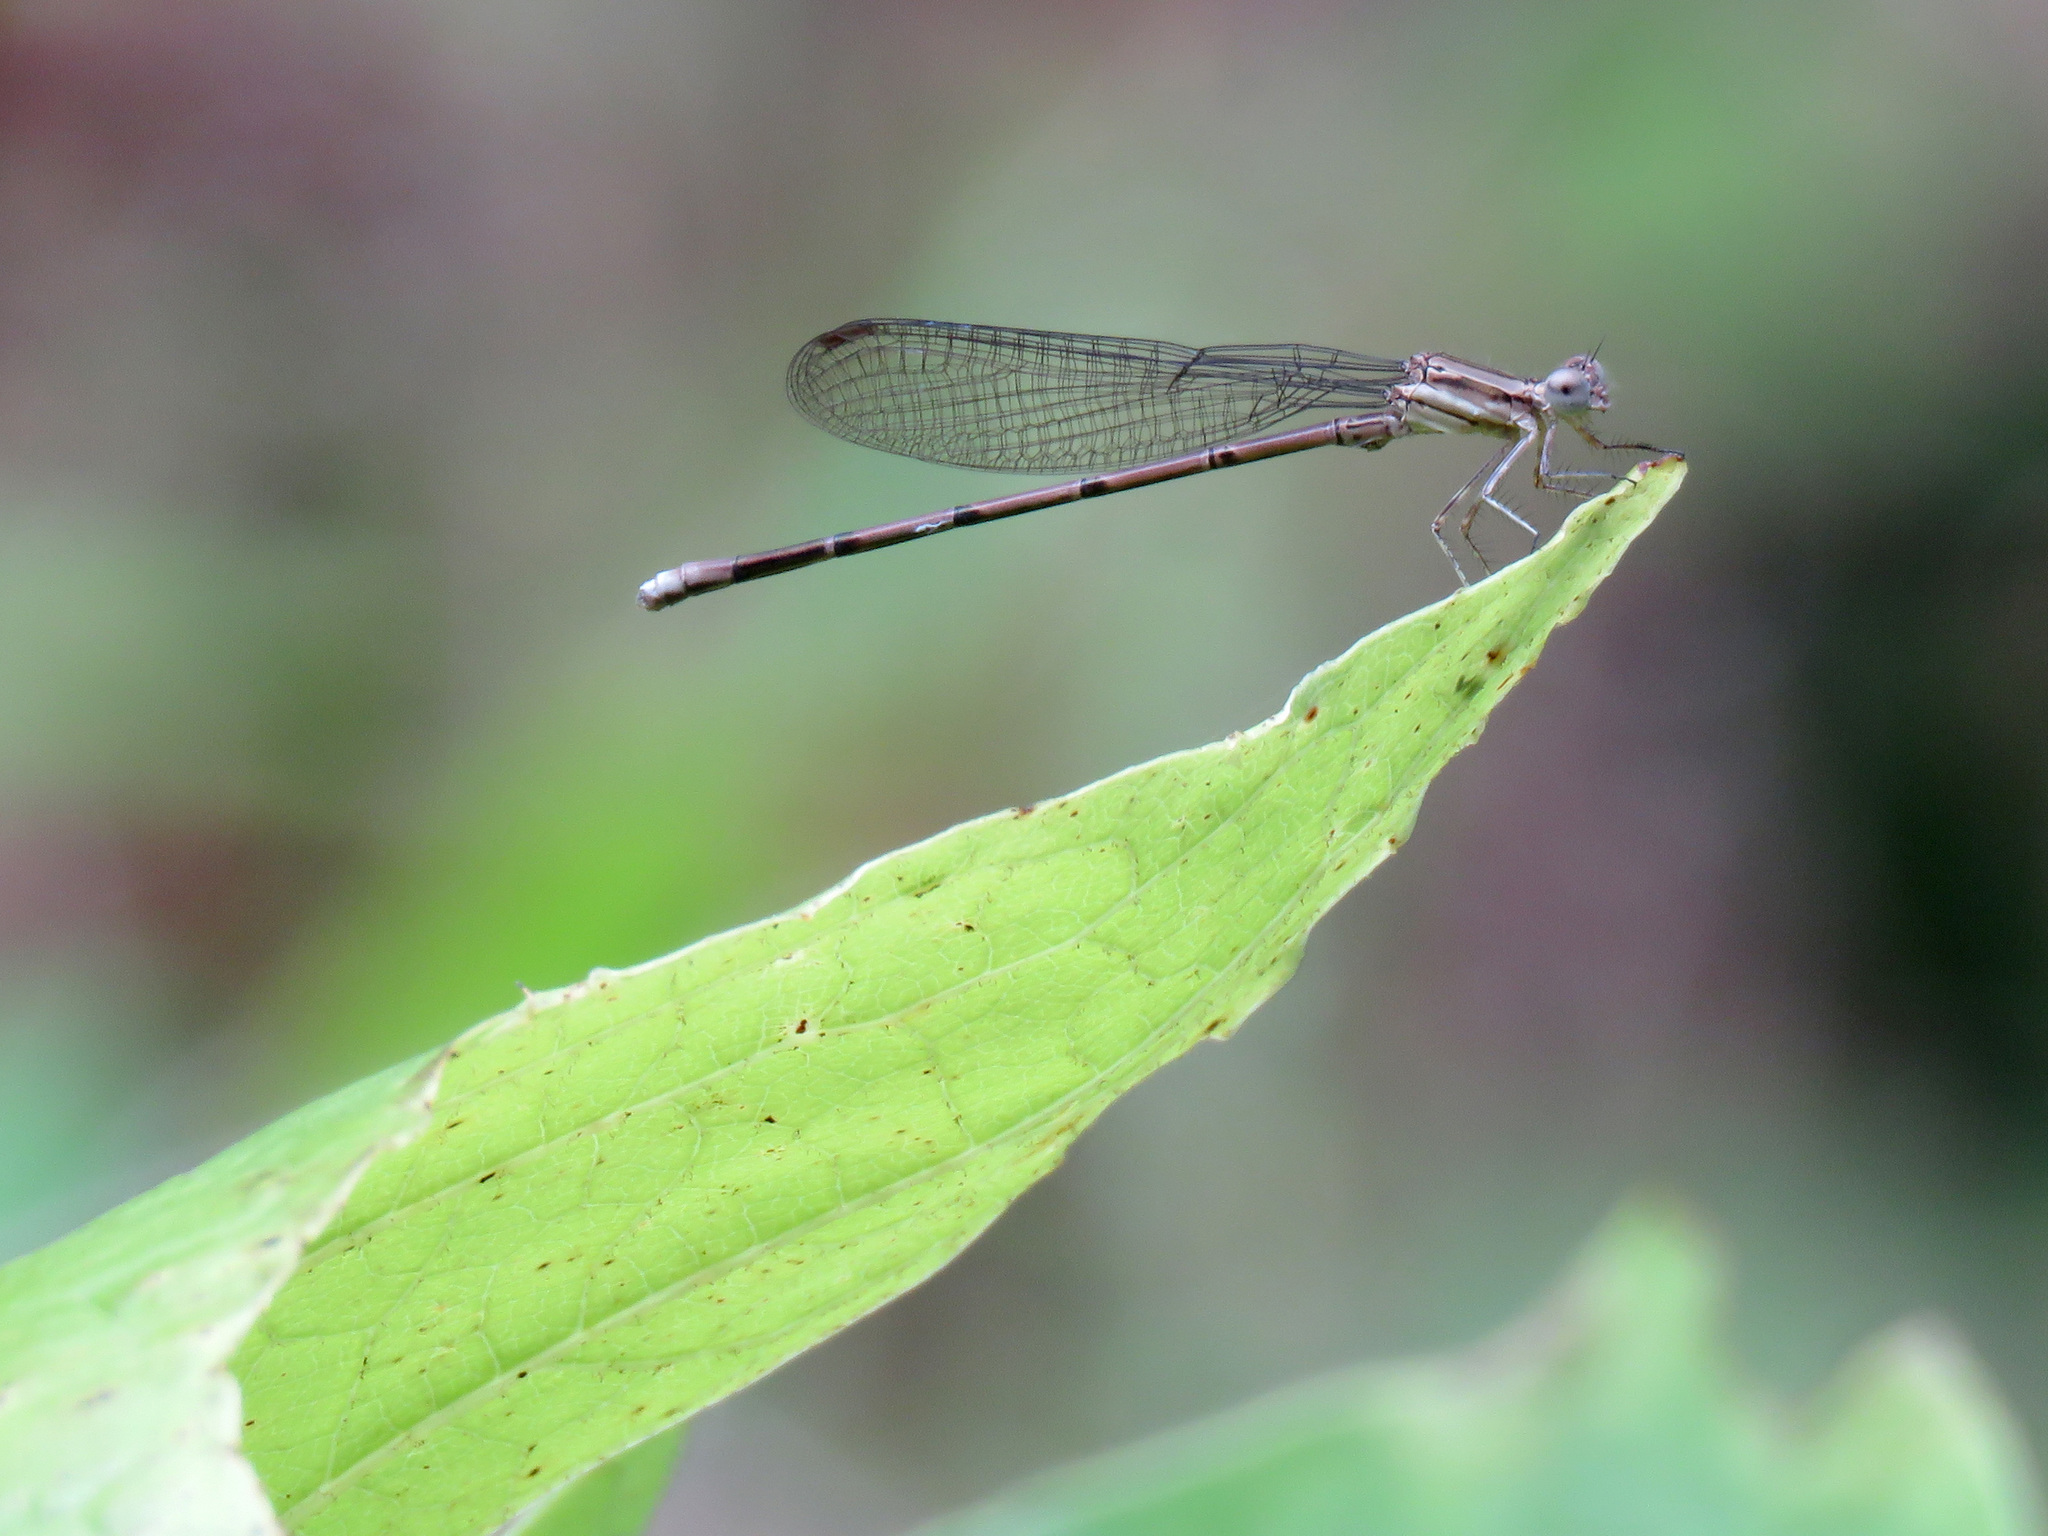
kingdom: Animalia
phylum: Arthropoda
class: Insecta
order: Odonata
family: Coenagrionidae
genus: Argia
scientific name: Argia fumipennis
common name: Variable dancer
